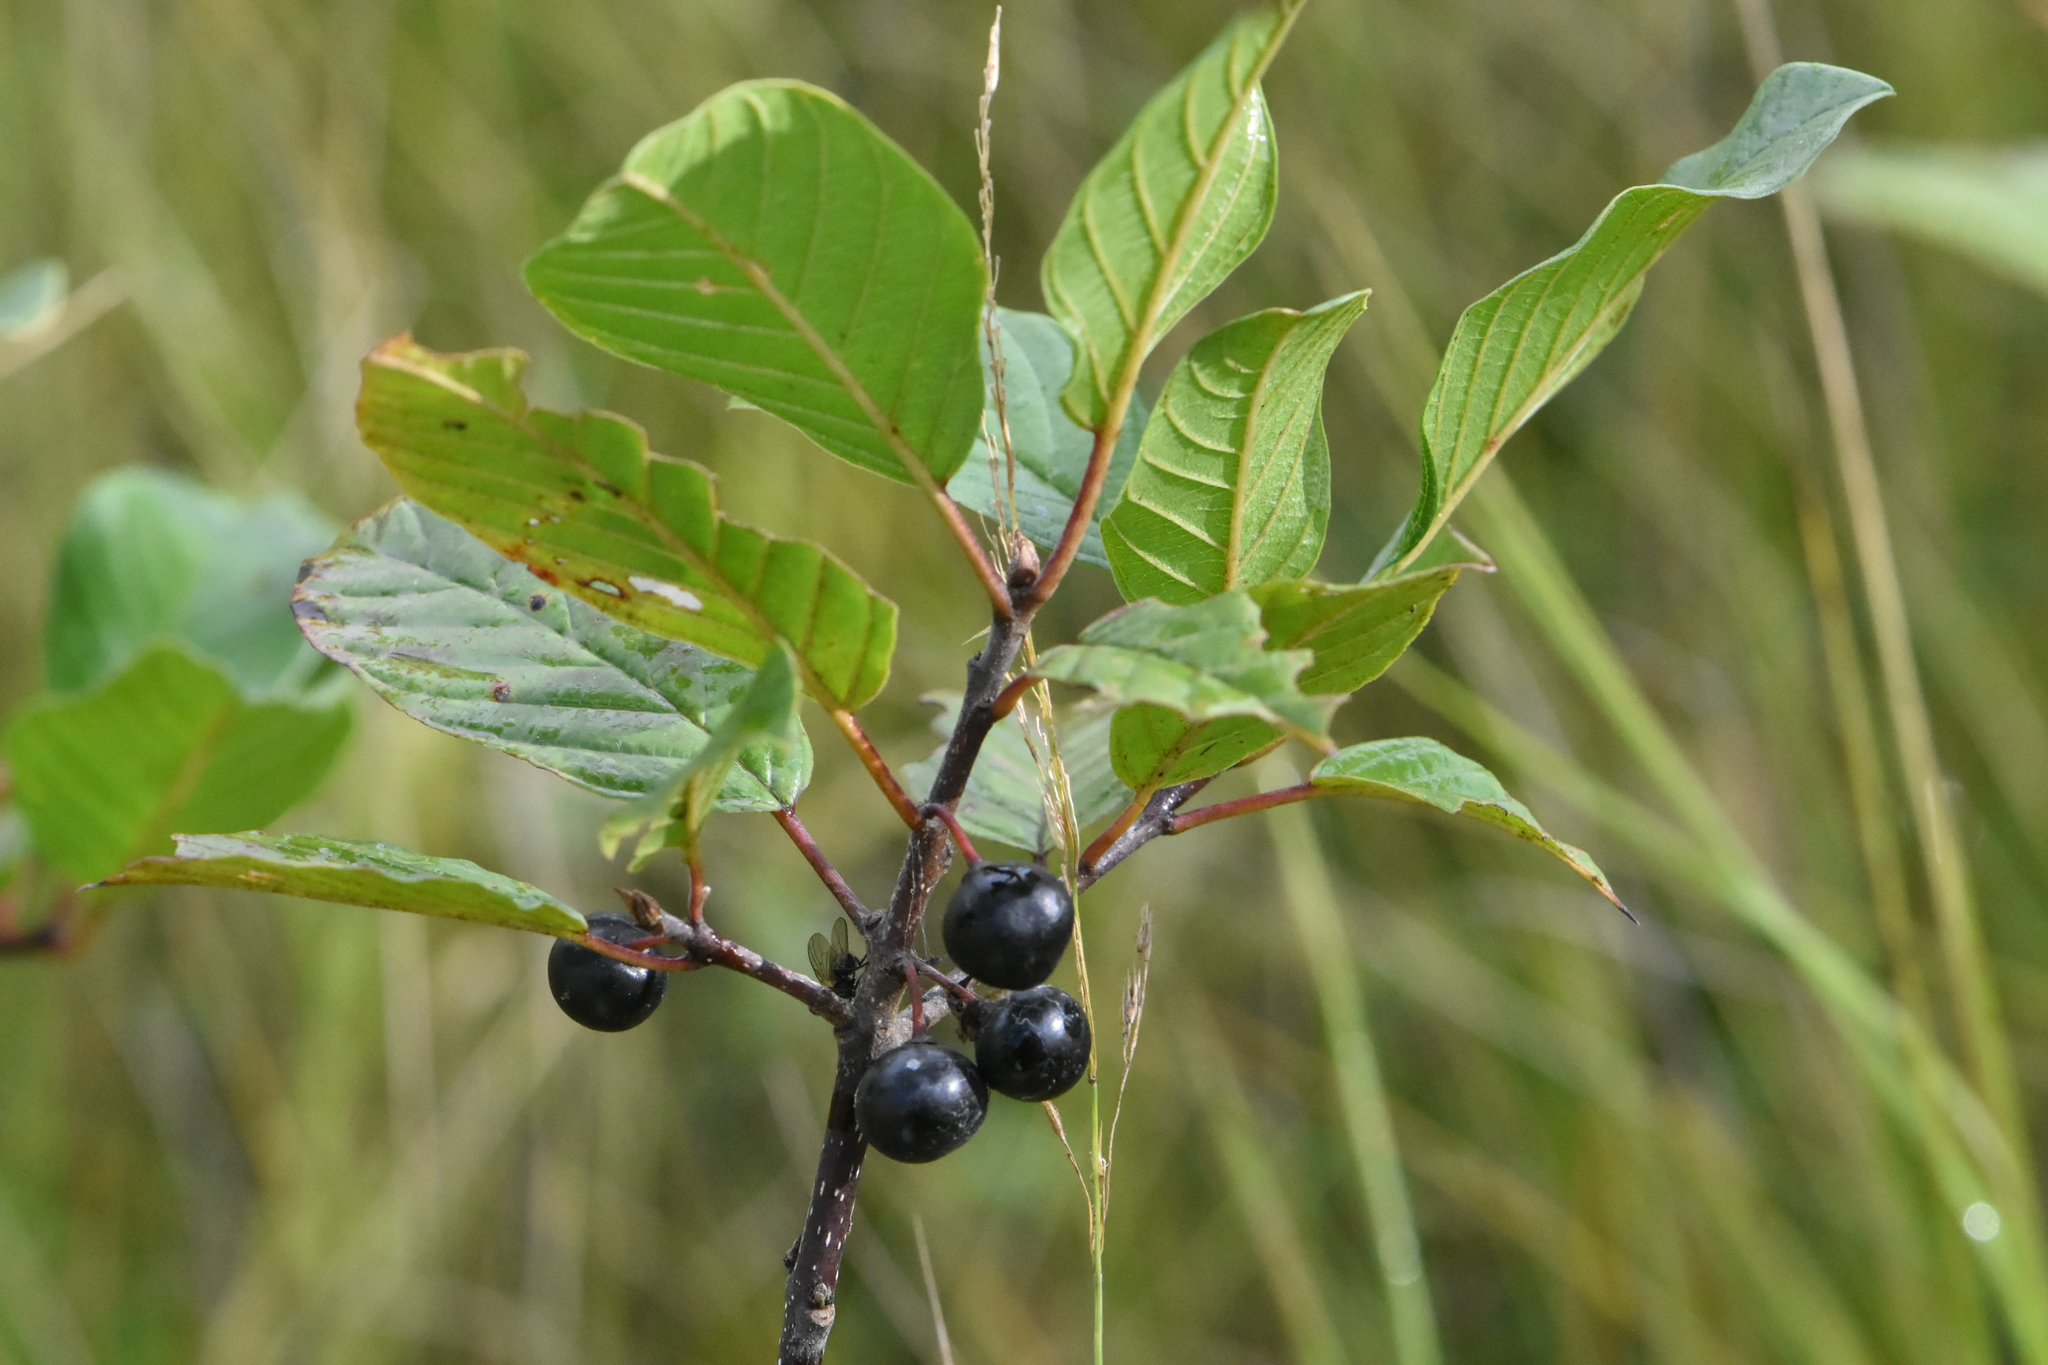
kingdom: Plantae
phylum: Tracheophyta
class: Magnoliopsida
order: Rosales
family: Rhamnaceae
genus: Frangula
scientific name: Frangula alnus
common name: Alder buckthorn
